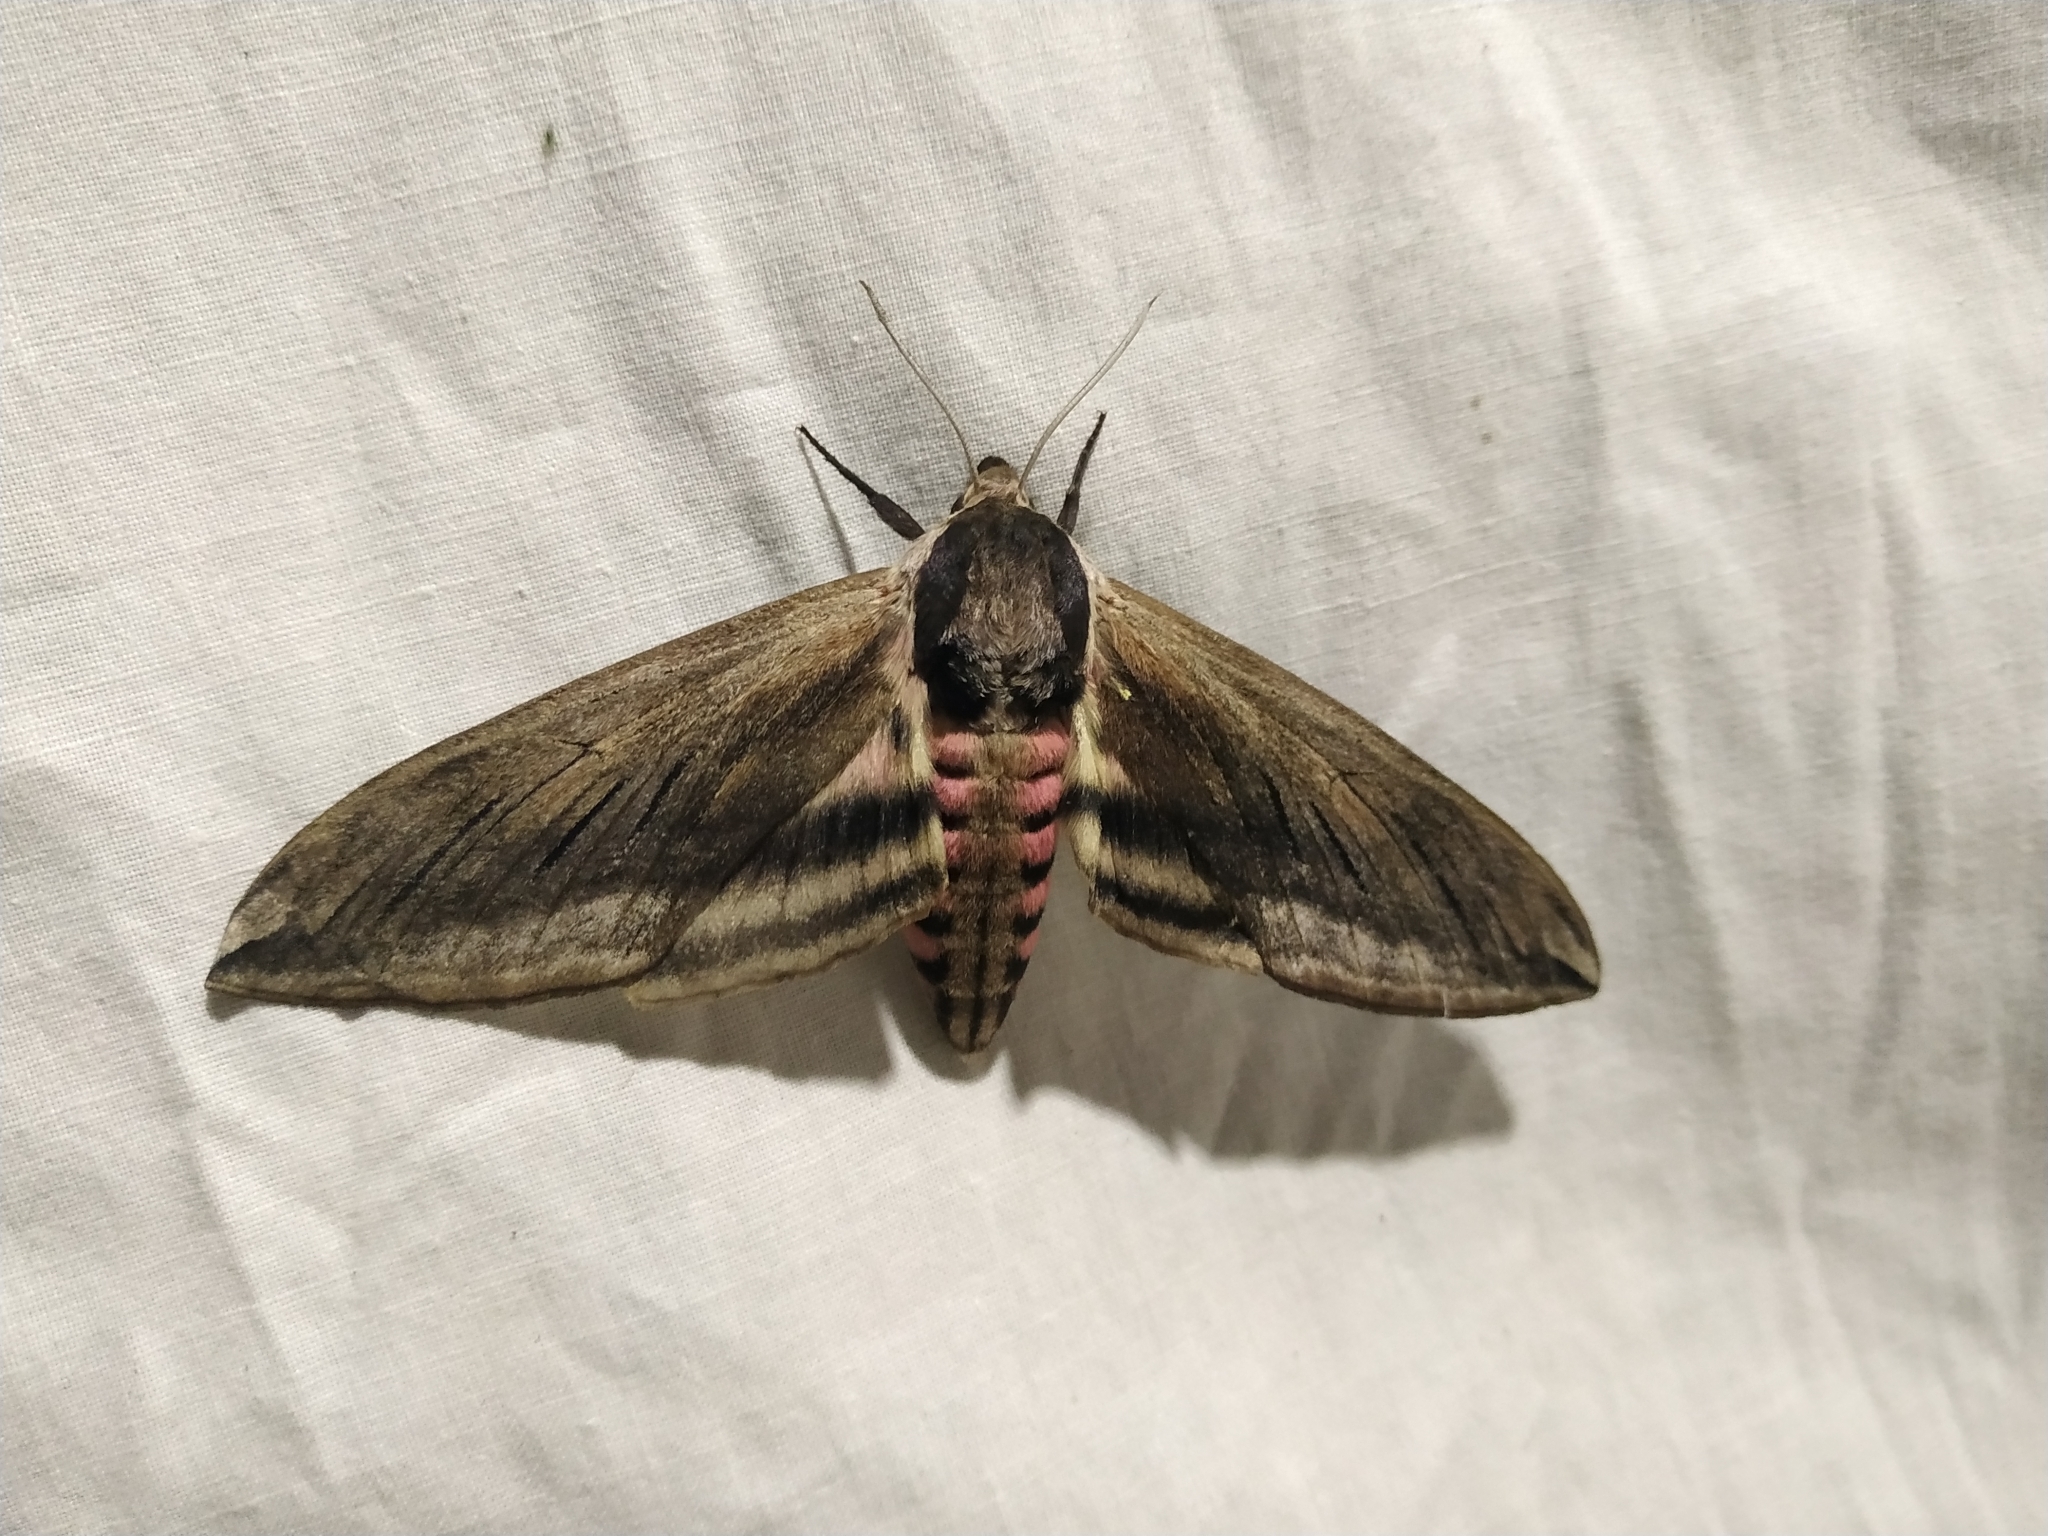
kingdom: Animalia
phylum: Arthropoda
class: Insecta
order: Lepidoptera
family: Sphingidae
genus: Sphinx
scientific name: Sphinx ligustri
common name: Privet hawk-moth
